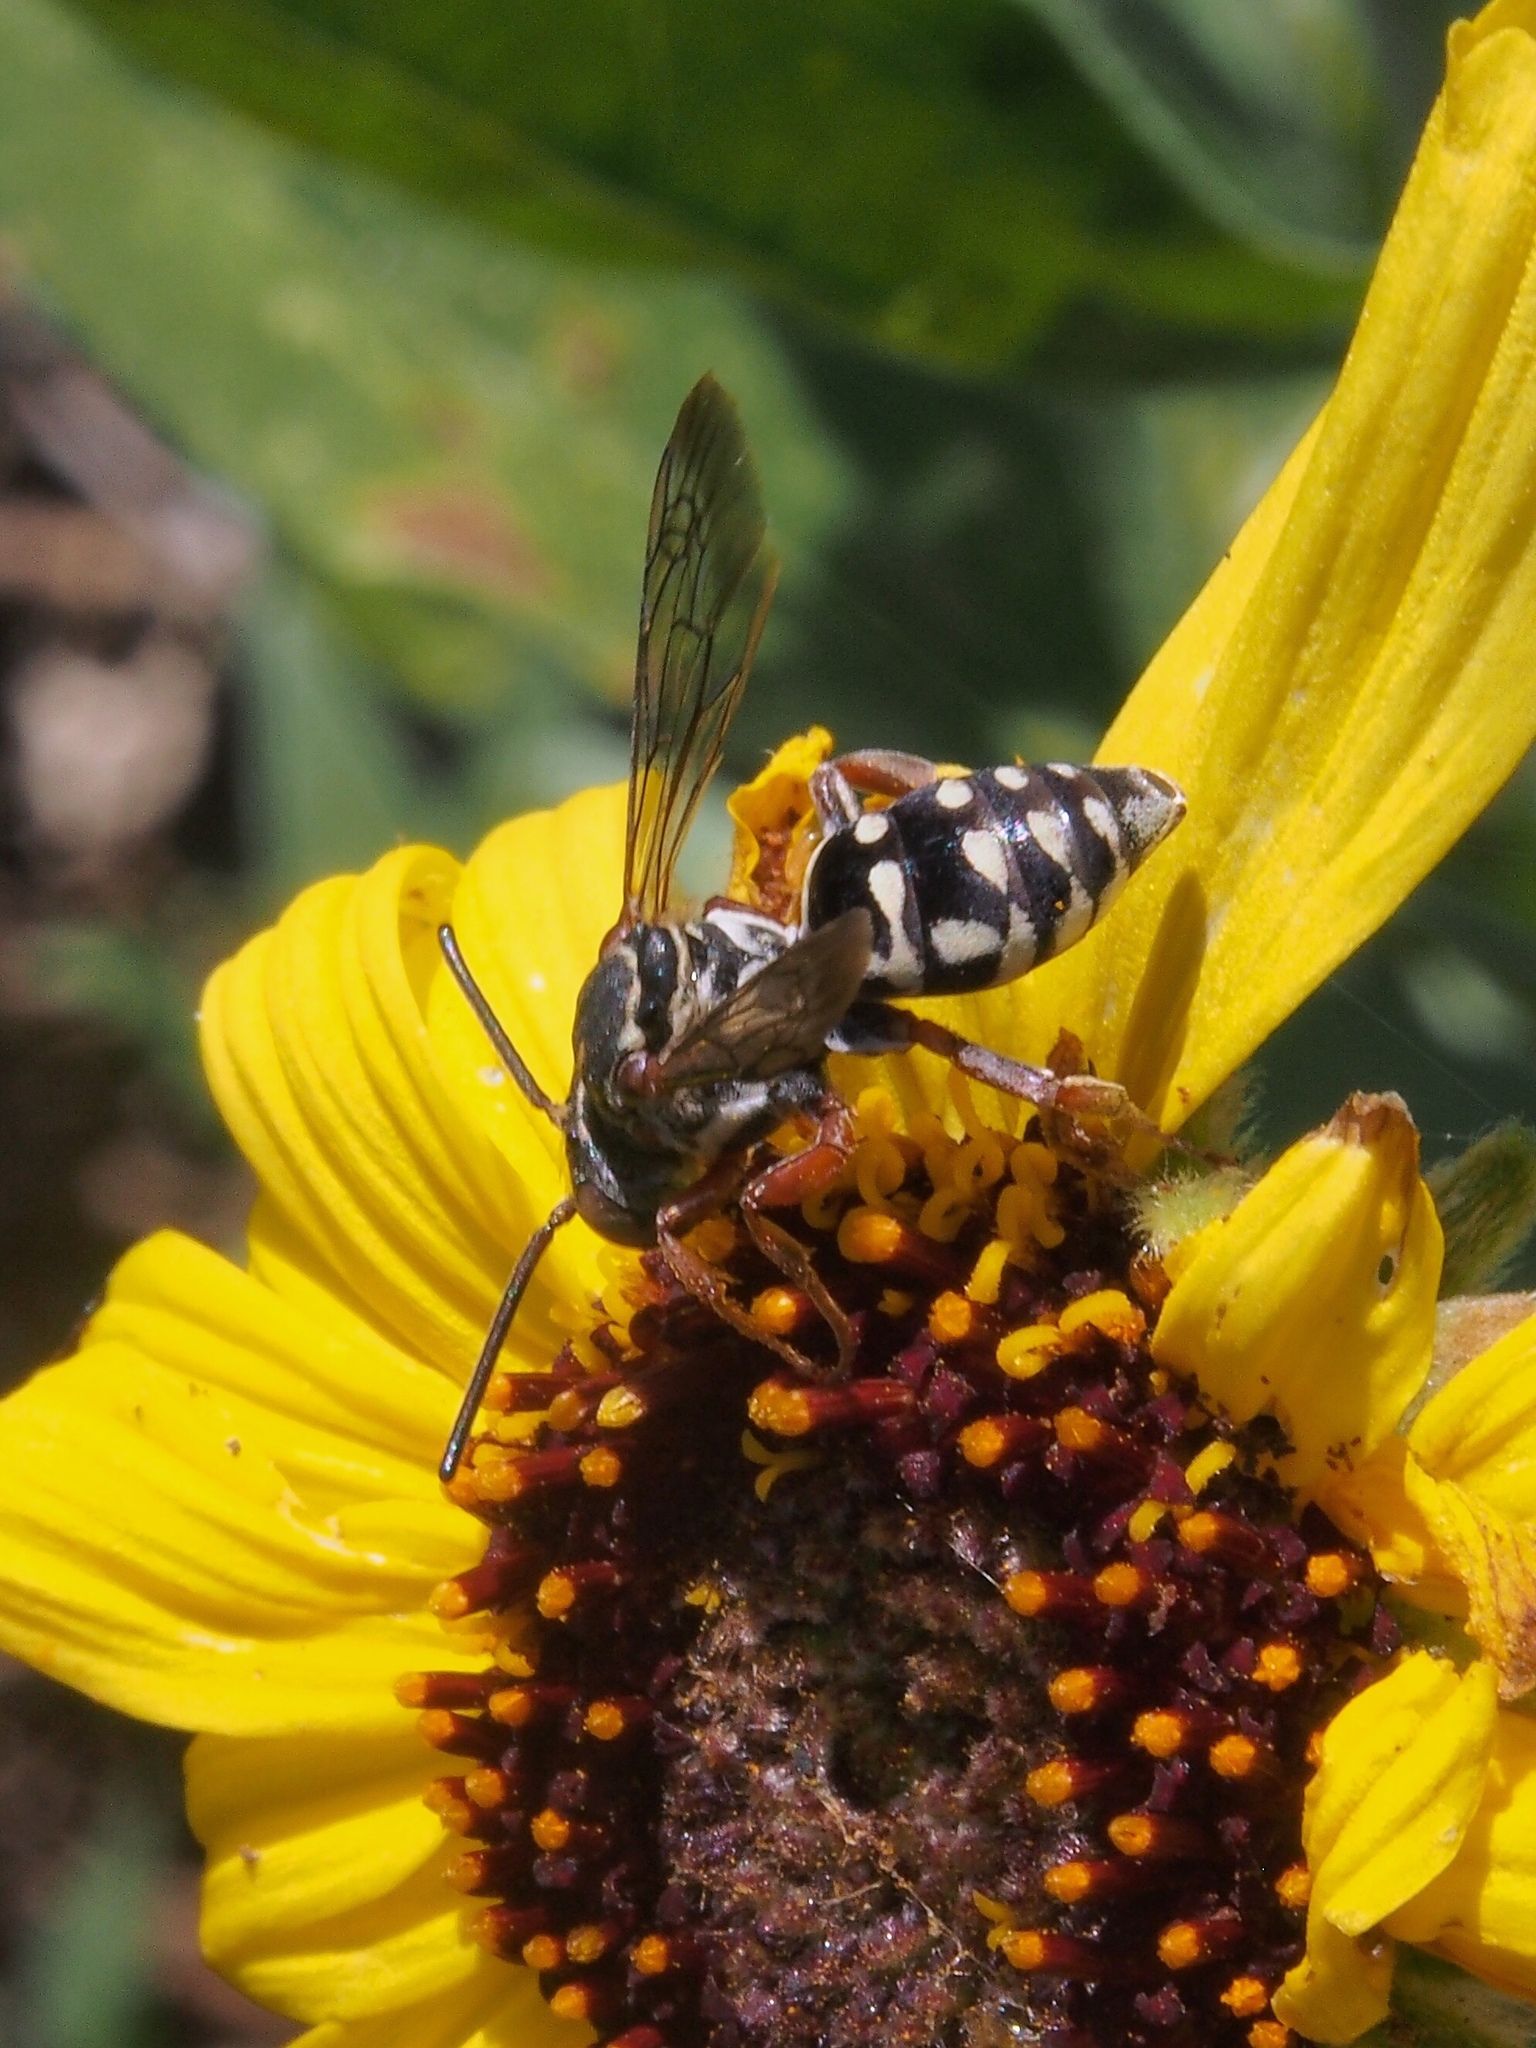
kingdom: Animalia
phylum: Arthropoda
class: Insecta
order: Hymenoptera
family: Apidae
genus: Triepeolus
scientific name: Triepeolus verbesinae
